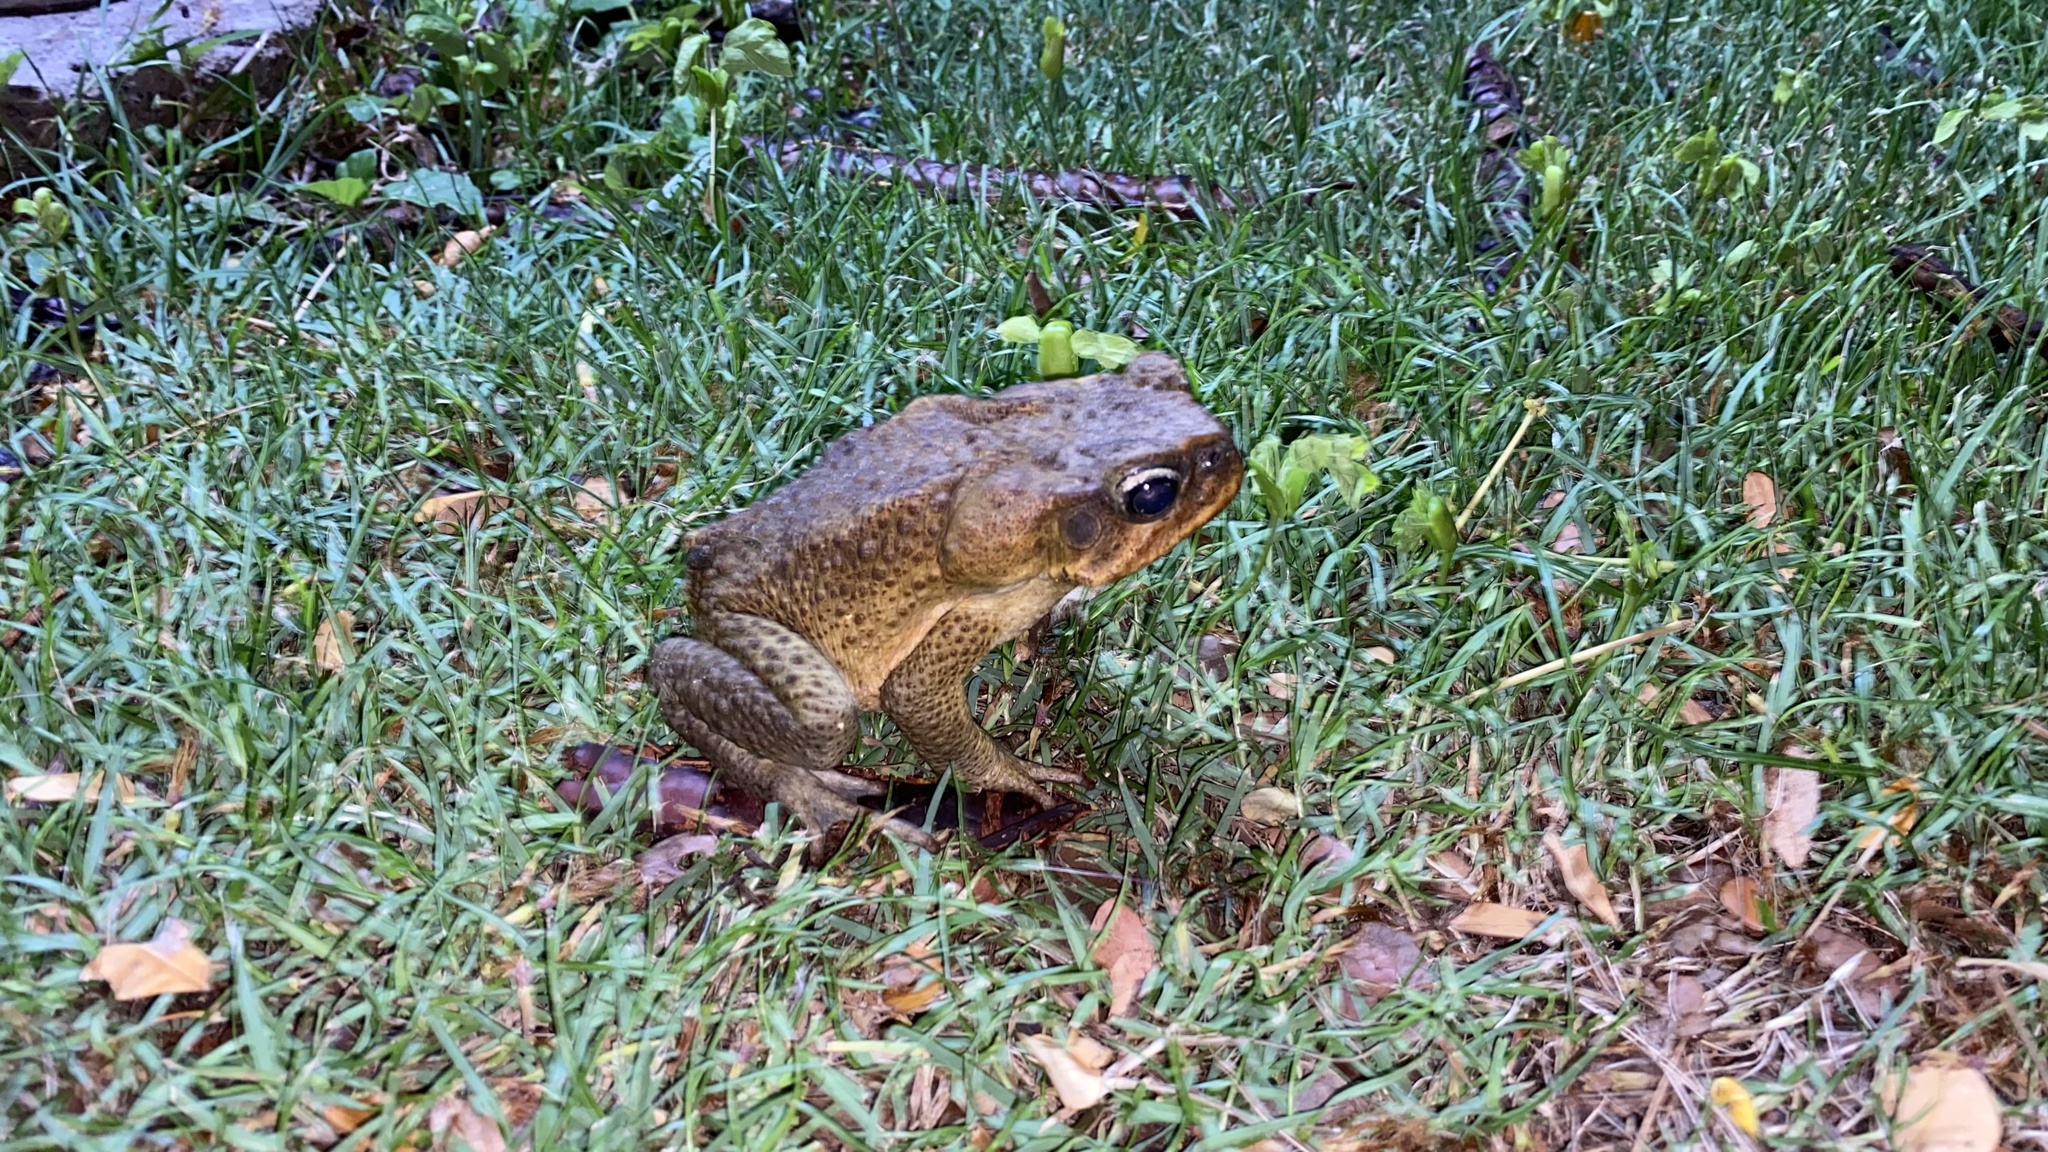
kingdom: Animalia
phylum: Chordata
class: Amphibia
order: Anura
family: Bufonidae
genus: Rhinella
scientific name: Rhinella marina
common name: Cane toad
